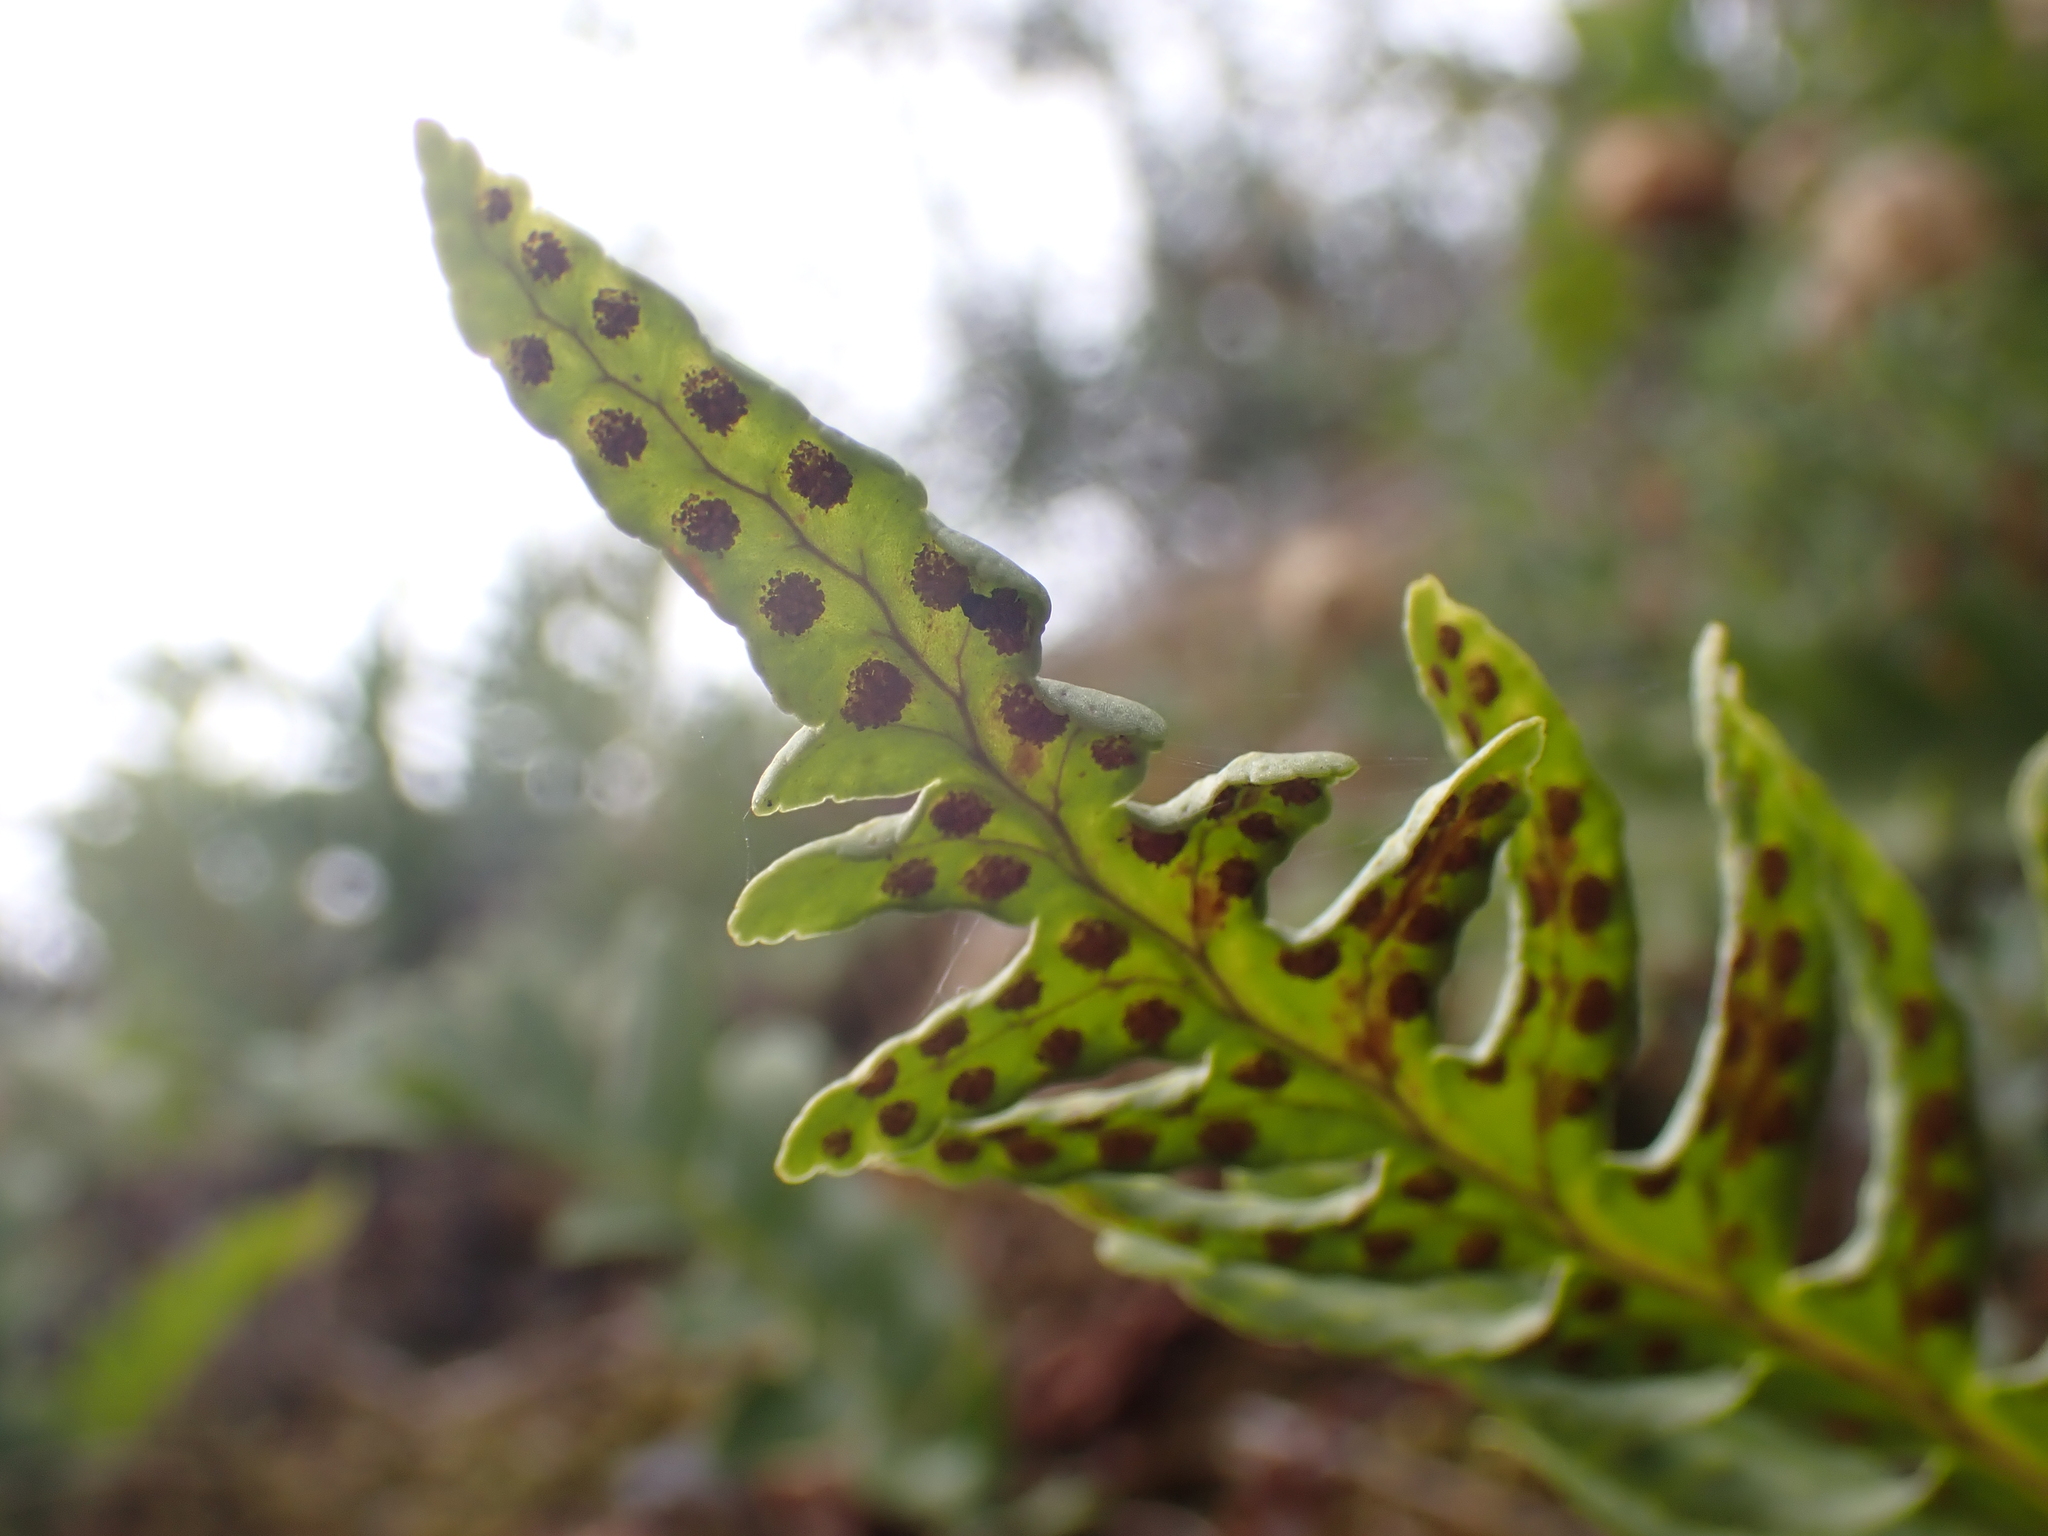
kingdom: Plantae
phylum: Tracheophyta
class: Polypodiopsida
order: Polypodiales
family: Polypodiaceae
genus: Polypodium
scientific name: Polypodium vulgare
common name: Common polypody
